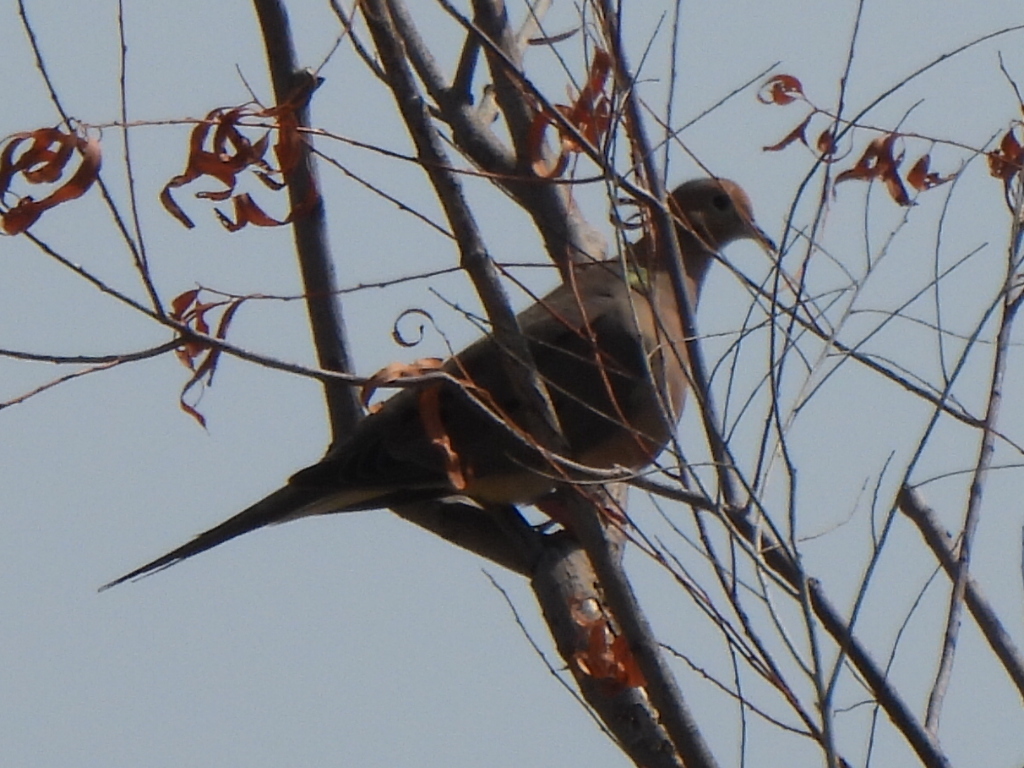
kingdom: Animalia
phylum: Chordata
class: Aves
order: Columbiformes
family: Columbidae
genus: Zenaida
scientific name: Zenaida macroura
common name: Mourning dove
